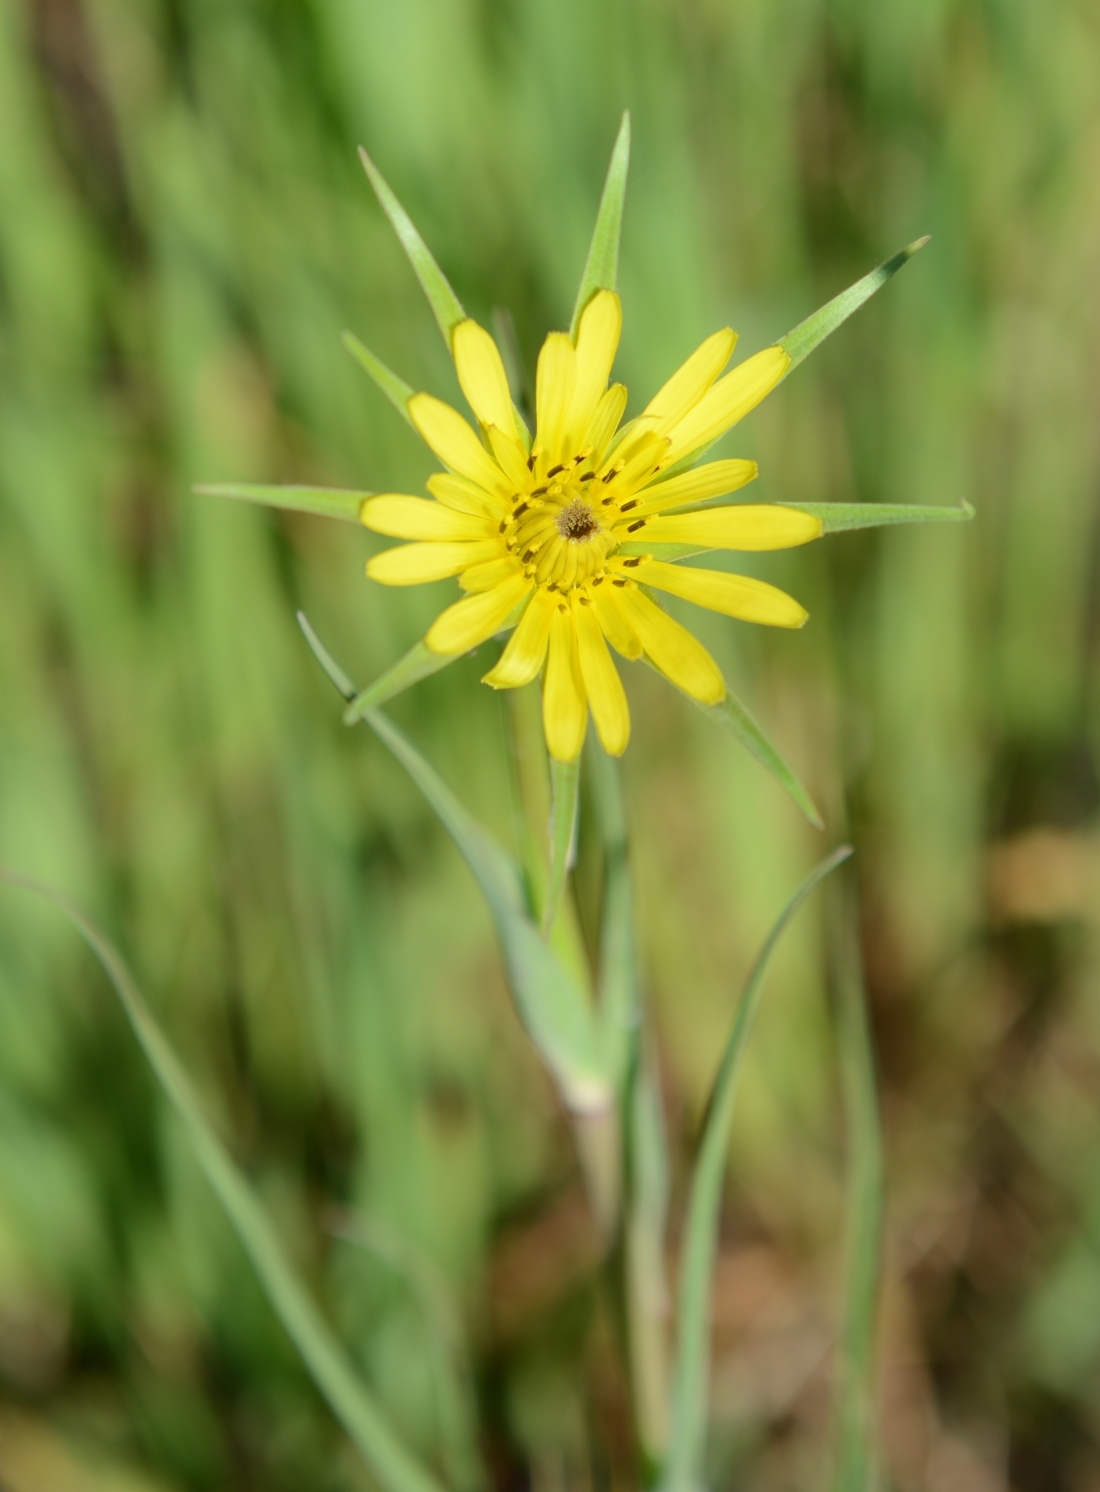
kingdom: Plantae
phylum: Tracheophyta
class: Magnoliopsida
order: Asterales
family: Asteraceae
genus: Tragopogon
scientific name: Tragopogon dubius
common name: Yellow salsify
